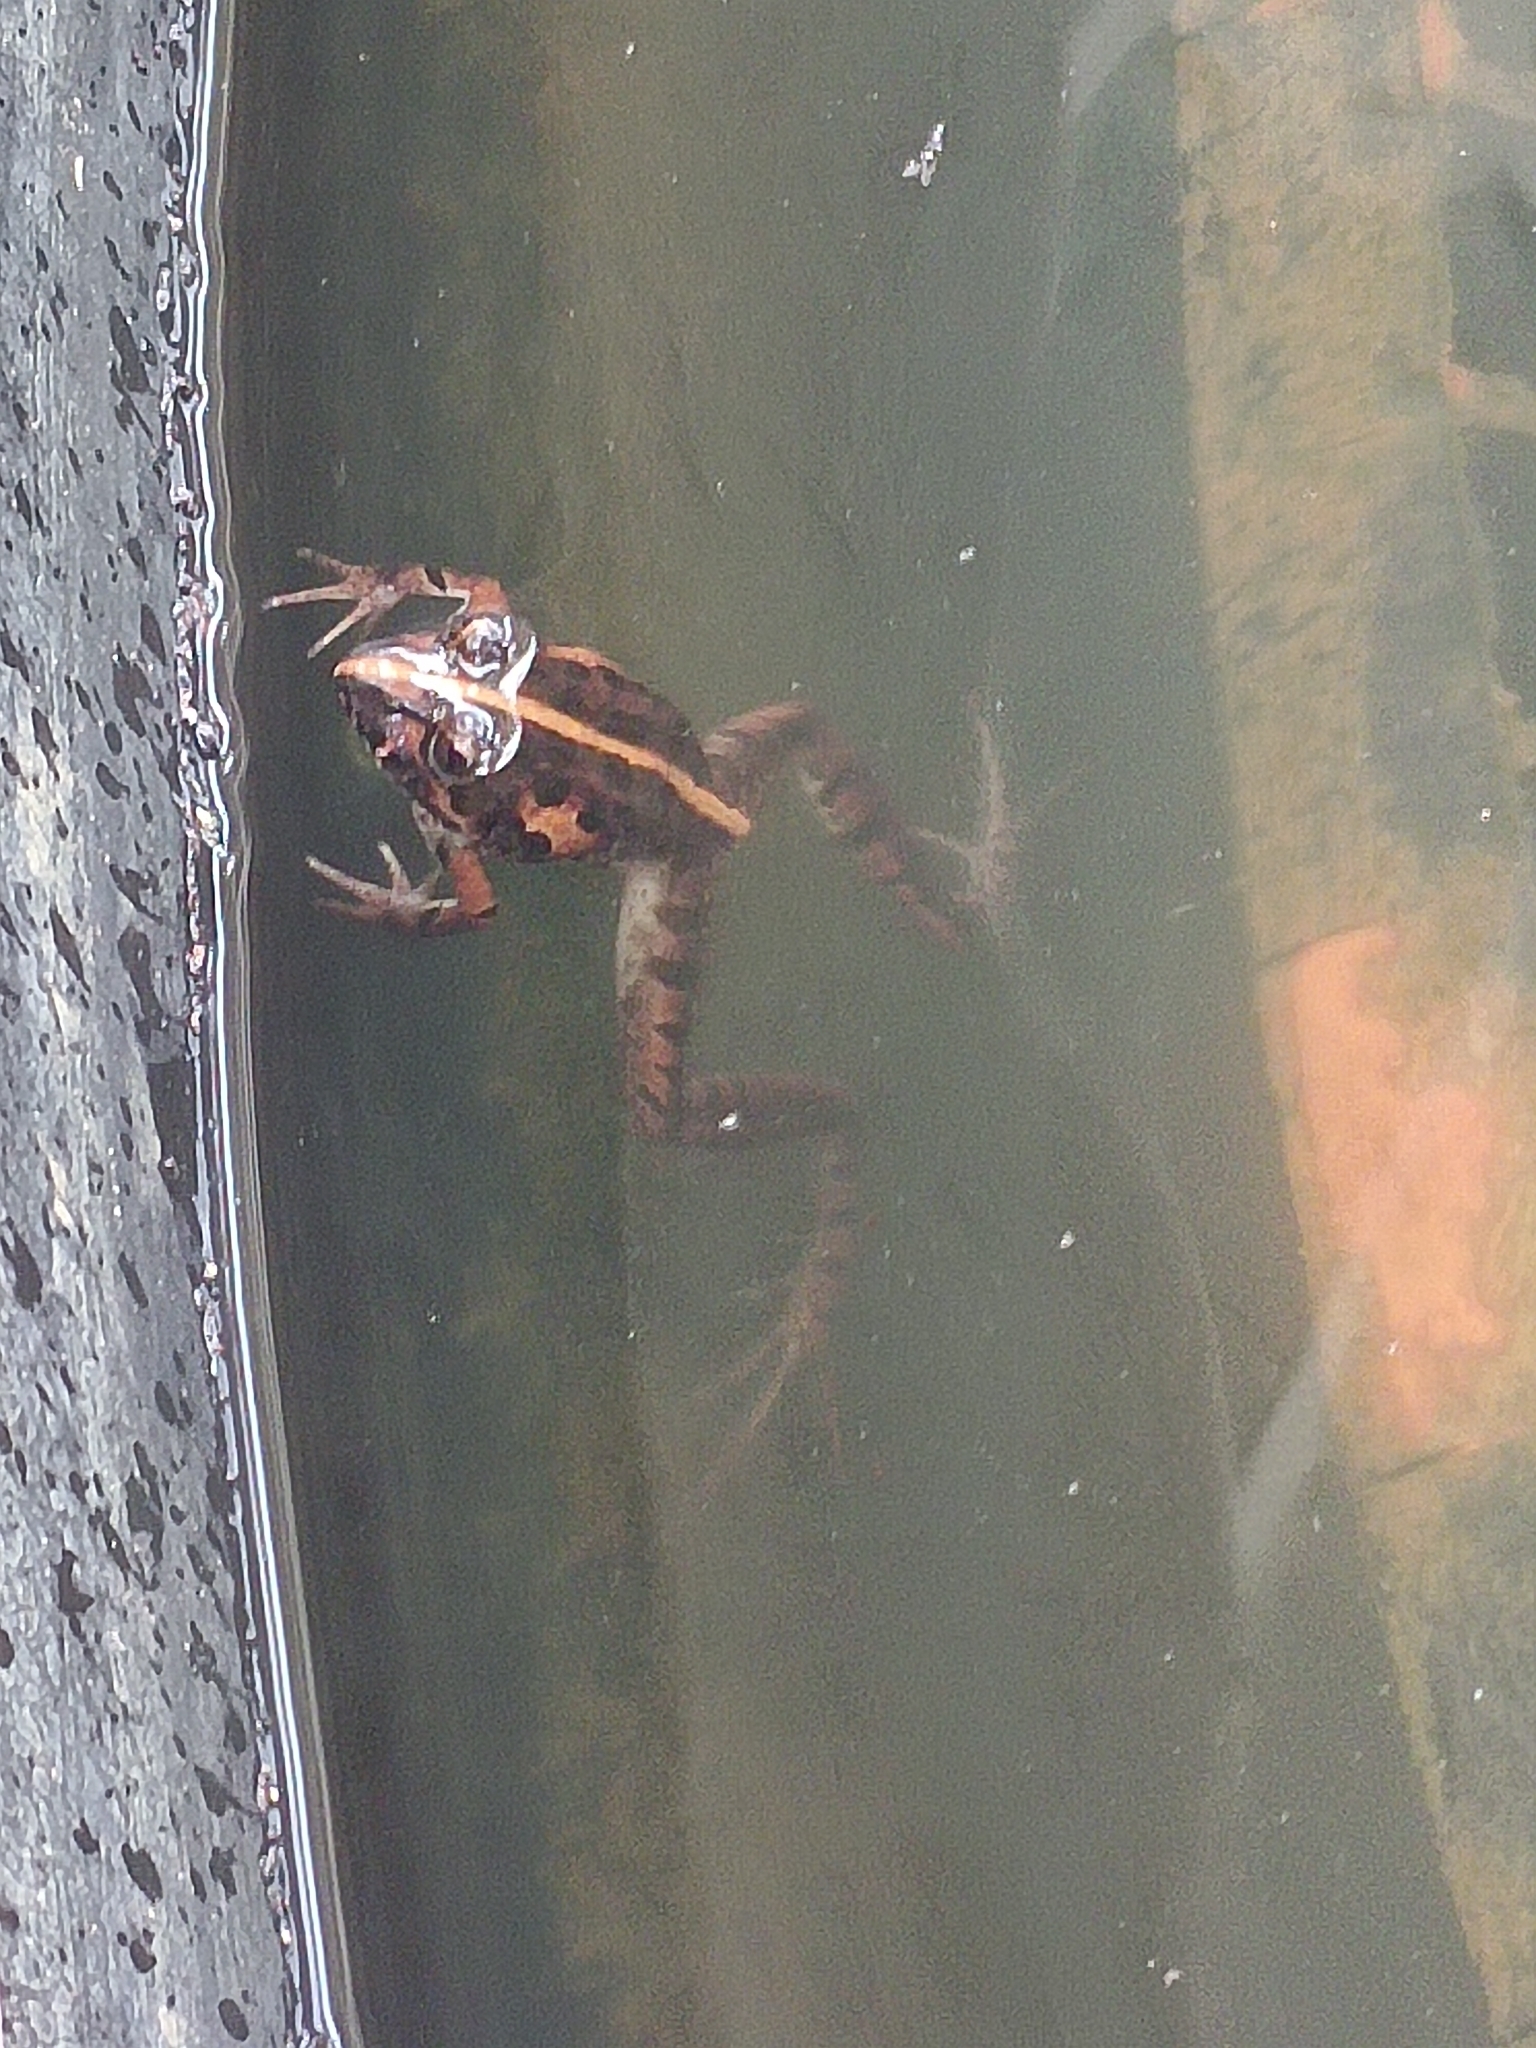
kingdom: Animalia
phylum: Chordata
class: Amphibia
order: Anura
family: Pyxicephalidae
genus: Strongylopus
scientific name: Strongylopus grayii
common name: Gray's stream frog
